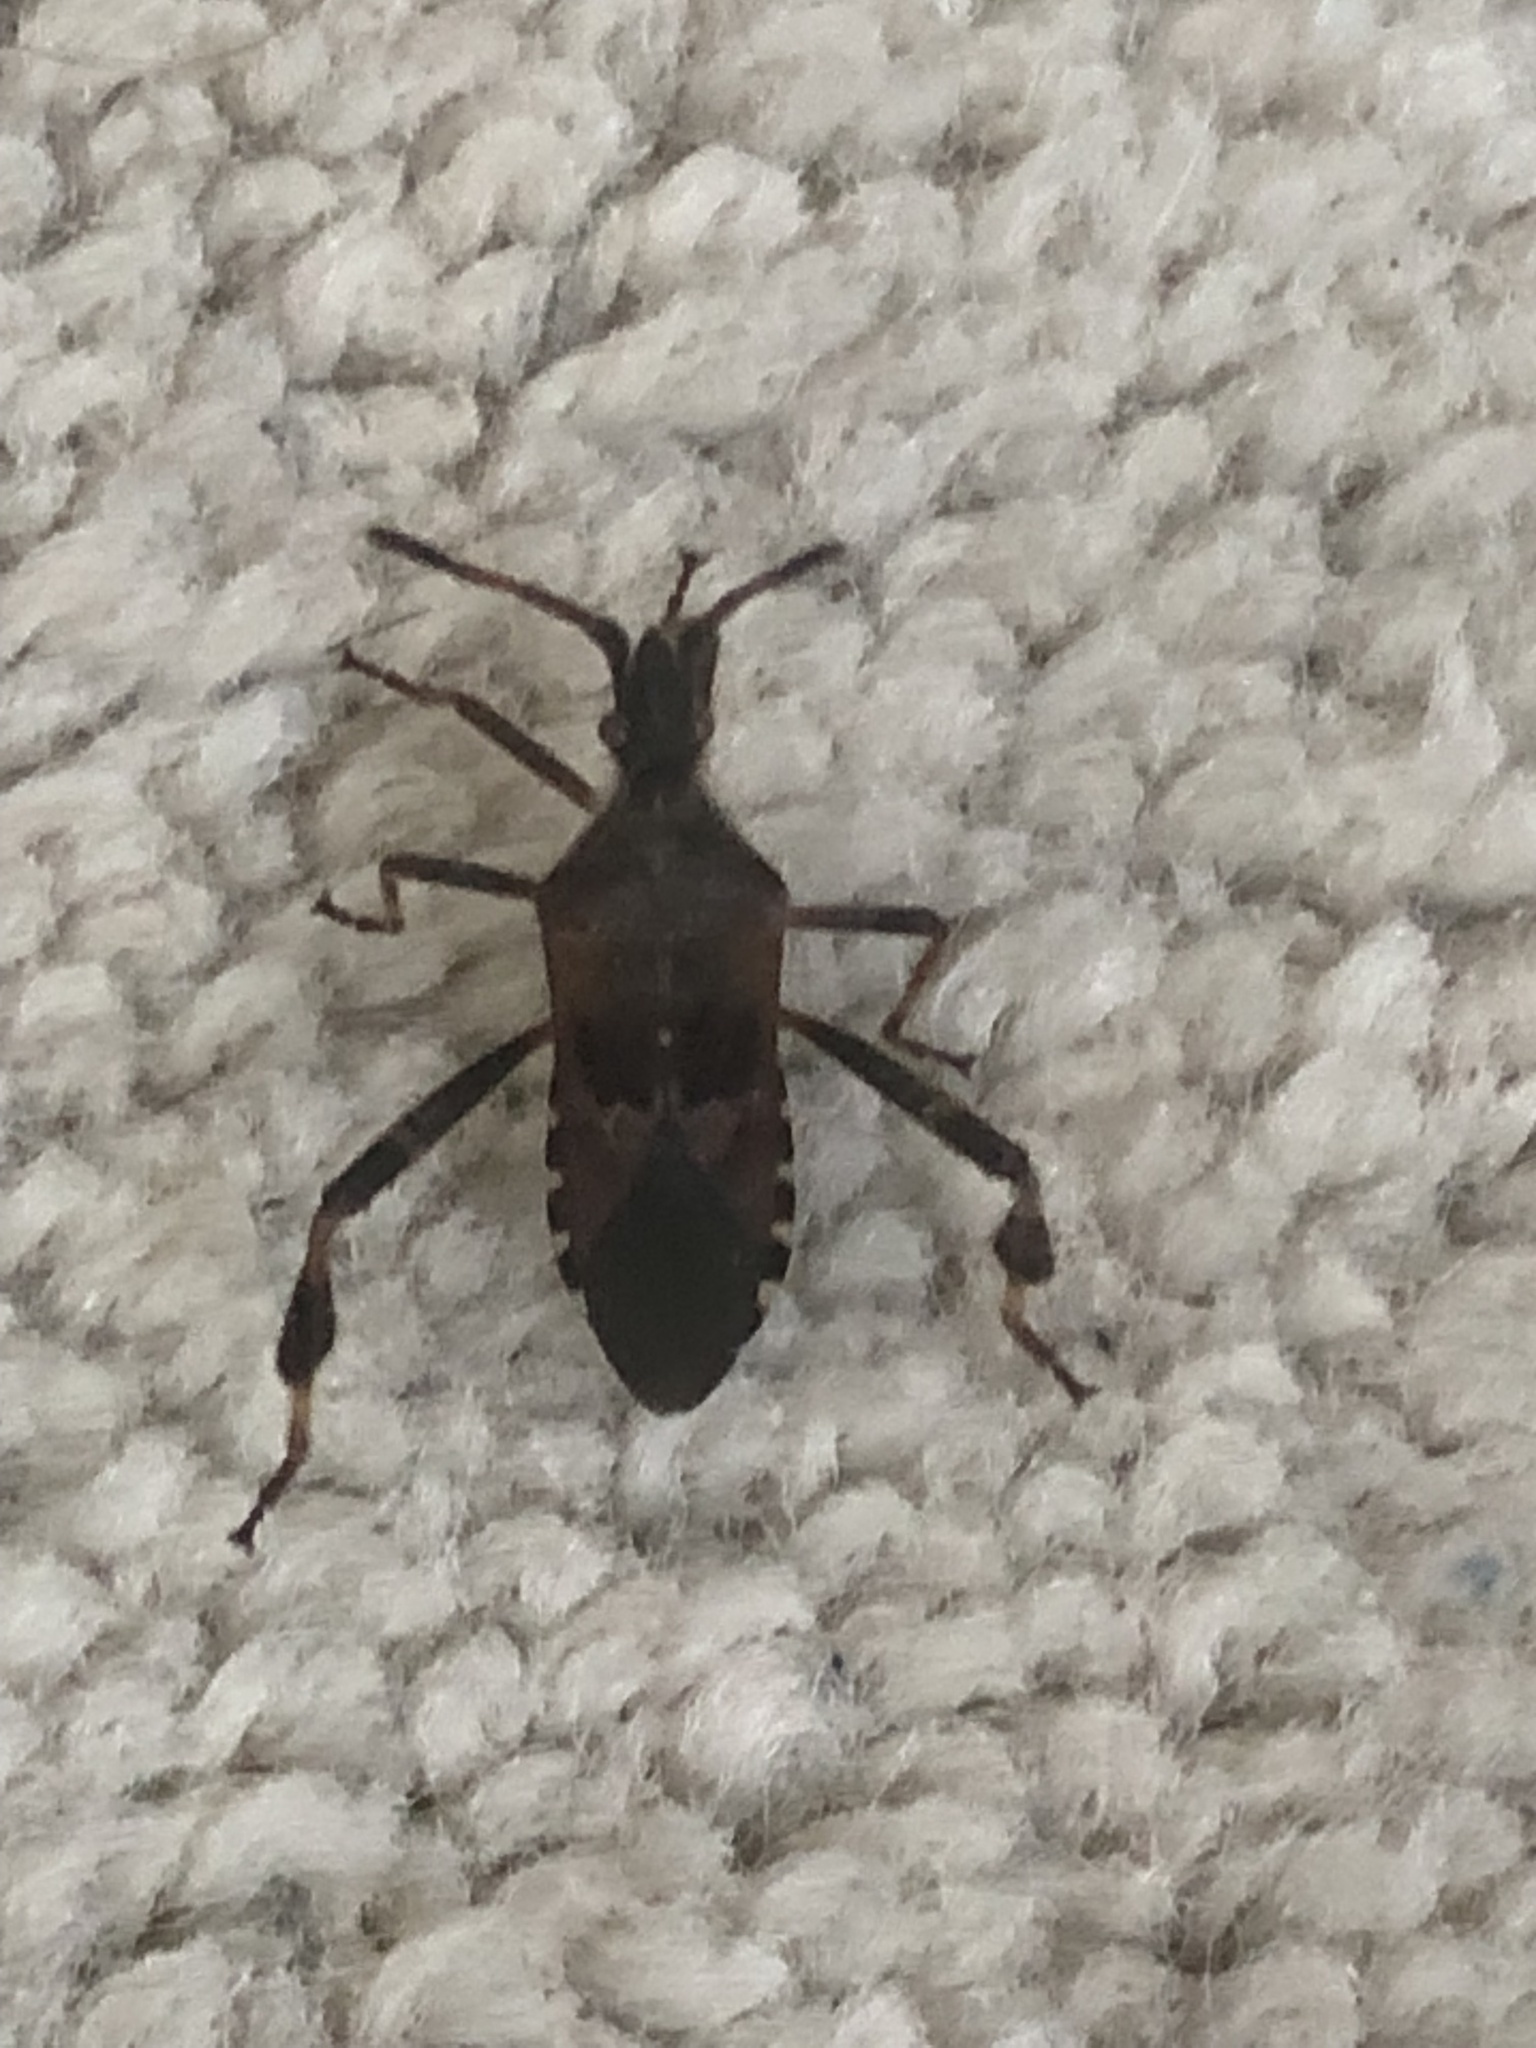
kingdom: Animalia
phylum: Arthropoda
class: Insecta
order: Hemiptera
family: Coreidae
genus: Leptoglossus
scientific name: Leptoglossus occidentalis
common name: Western conifer-seed bug
